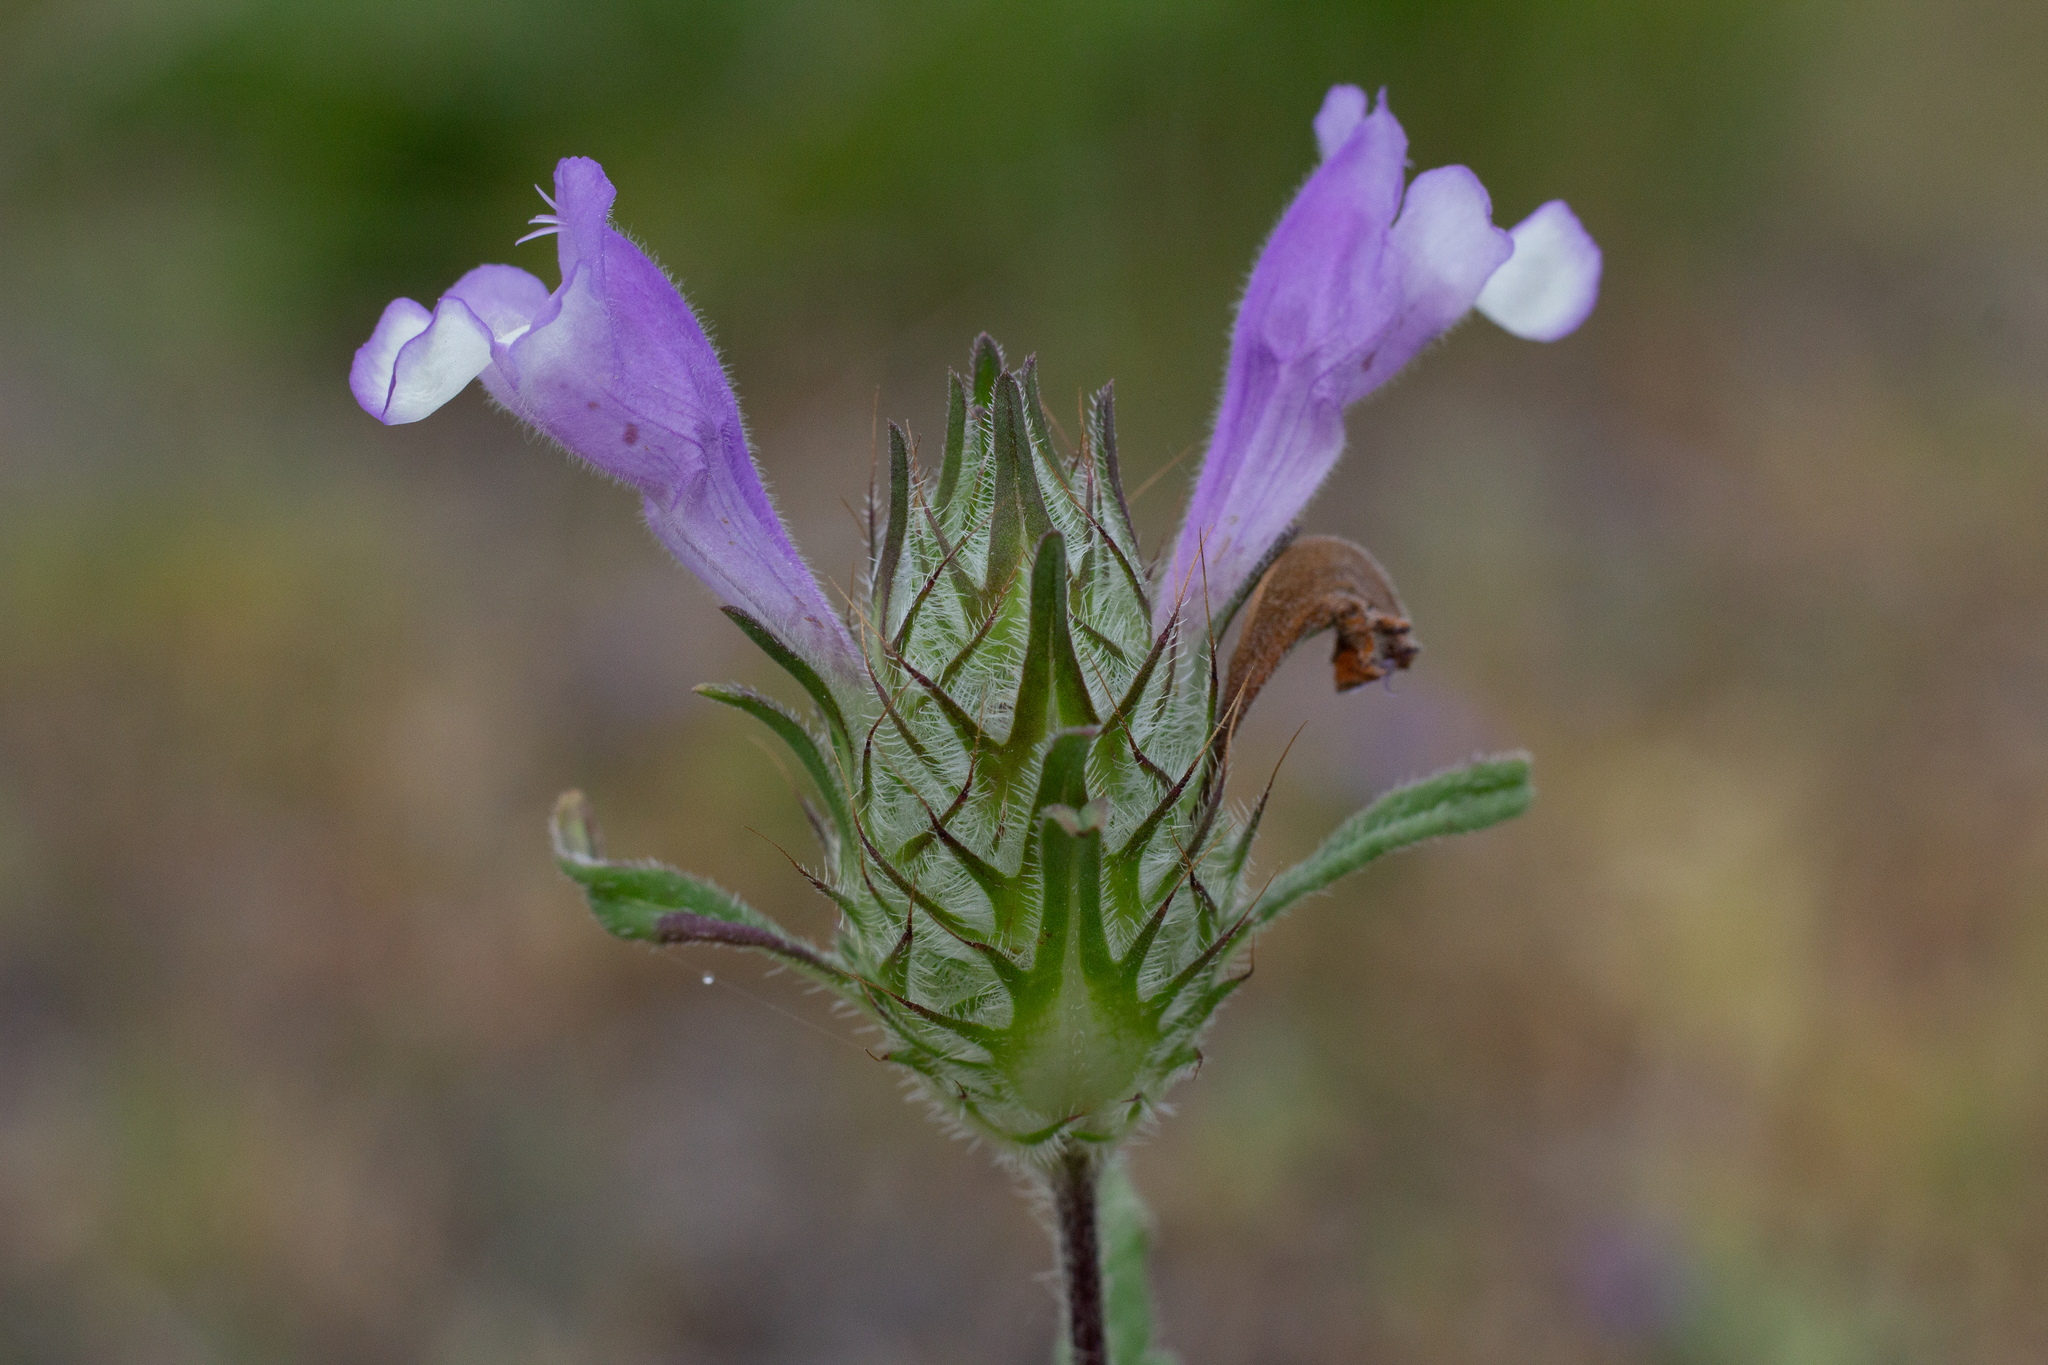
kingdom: Plantae
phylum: Tracheophyta
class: Magnoliopsida
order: Lamiales
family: Lamiaceae
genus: Cleonia
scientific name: Cleonia lusitanica
